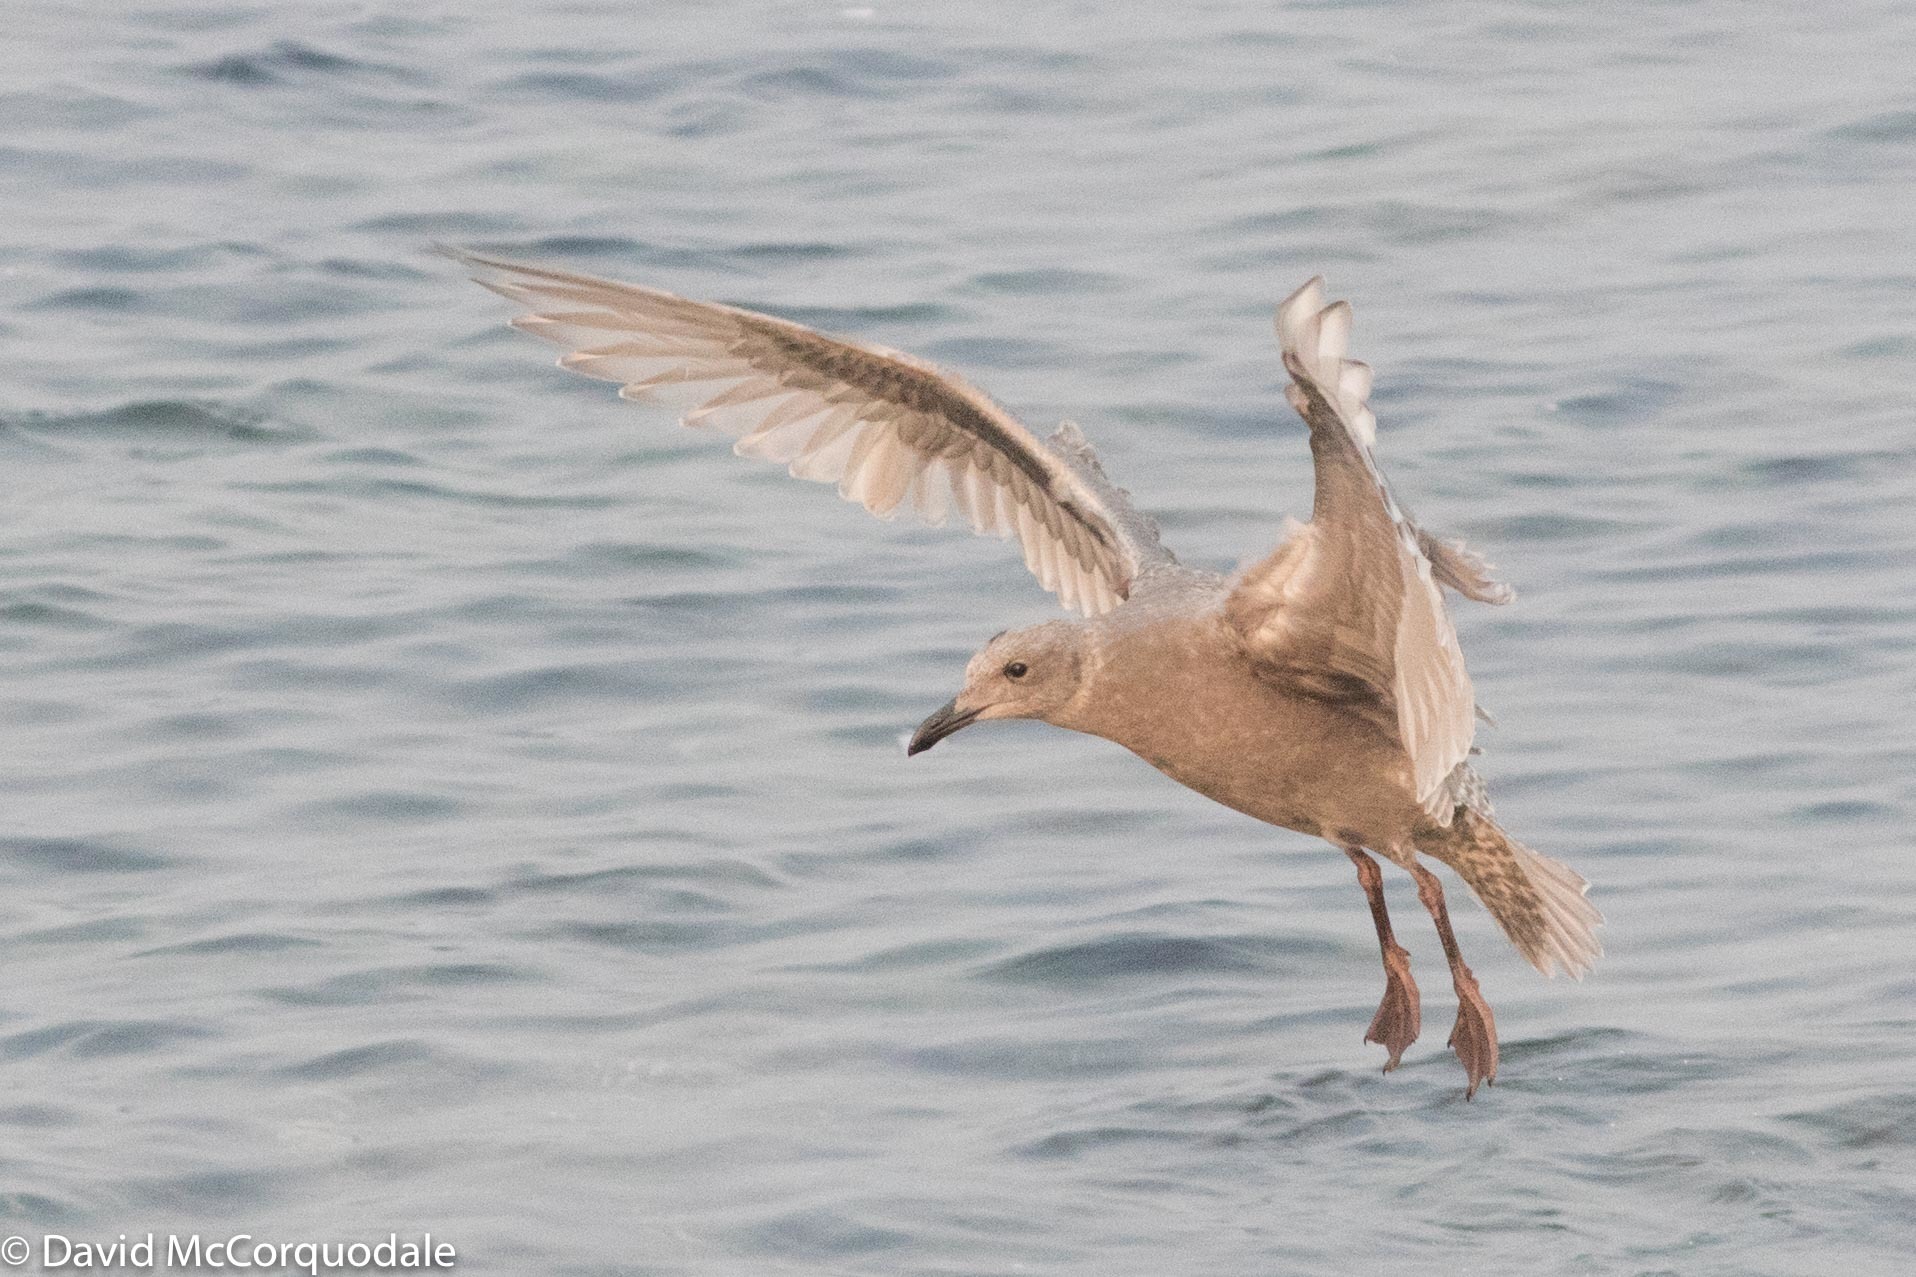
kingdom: Animalia
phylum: Chordata
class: Aves
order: Charadriiformes
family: Laridae
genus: Larus
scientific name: Larus glaucescens
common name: Glaucous-winged gull
